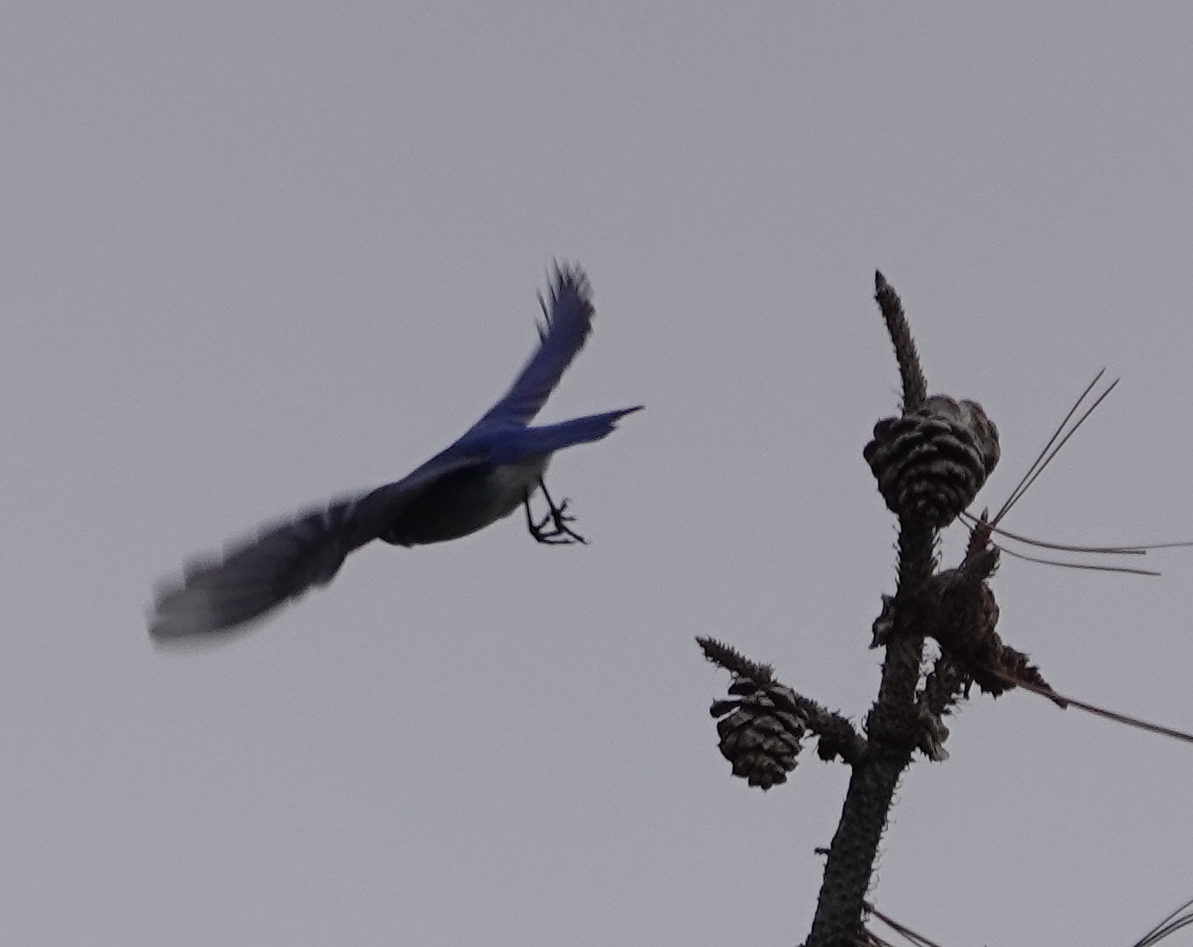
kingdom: Animalia
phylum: Chordata
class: Aves
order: Passeriformes
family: Turdidae
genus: Sialia
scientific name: Sialia currucoides
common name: Mountain bluebird
